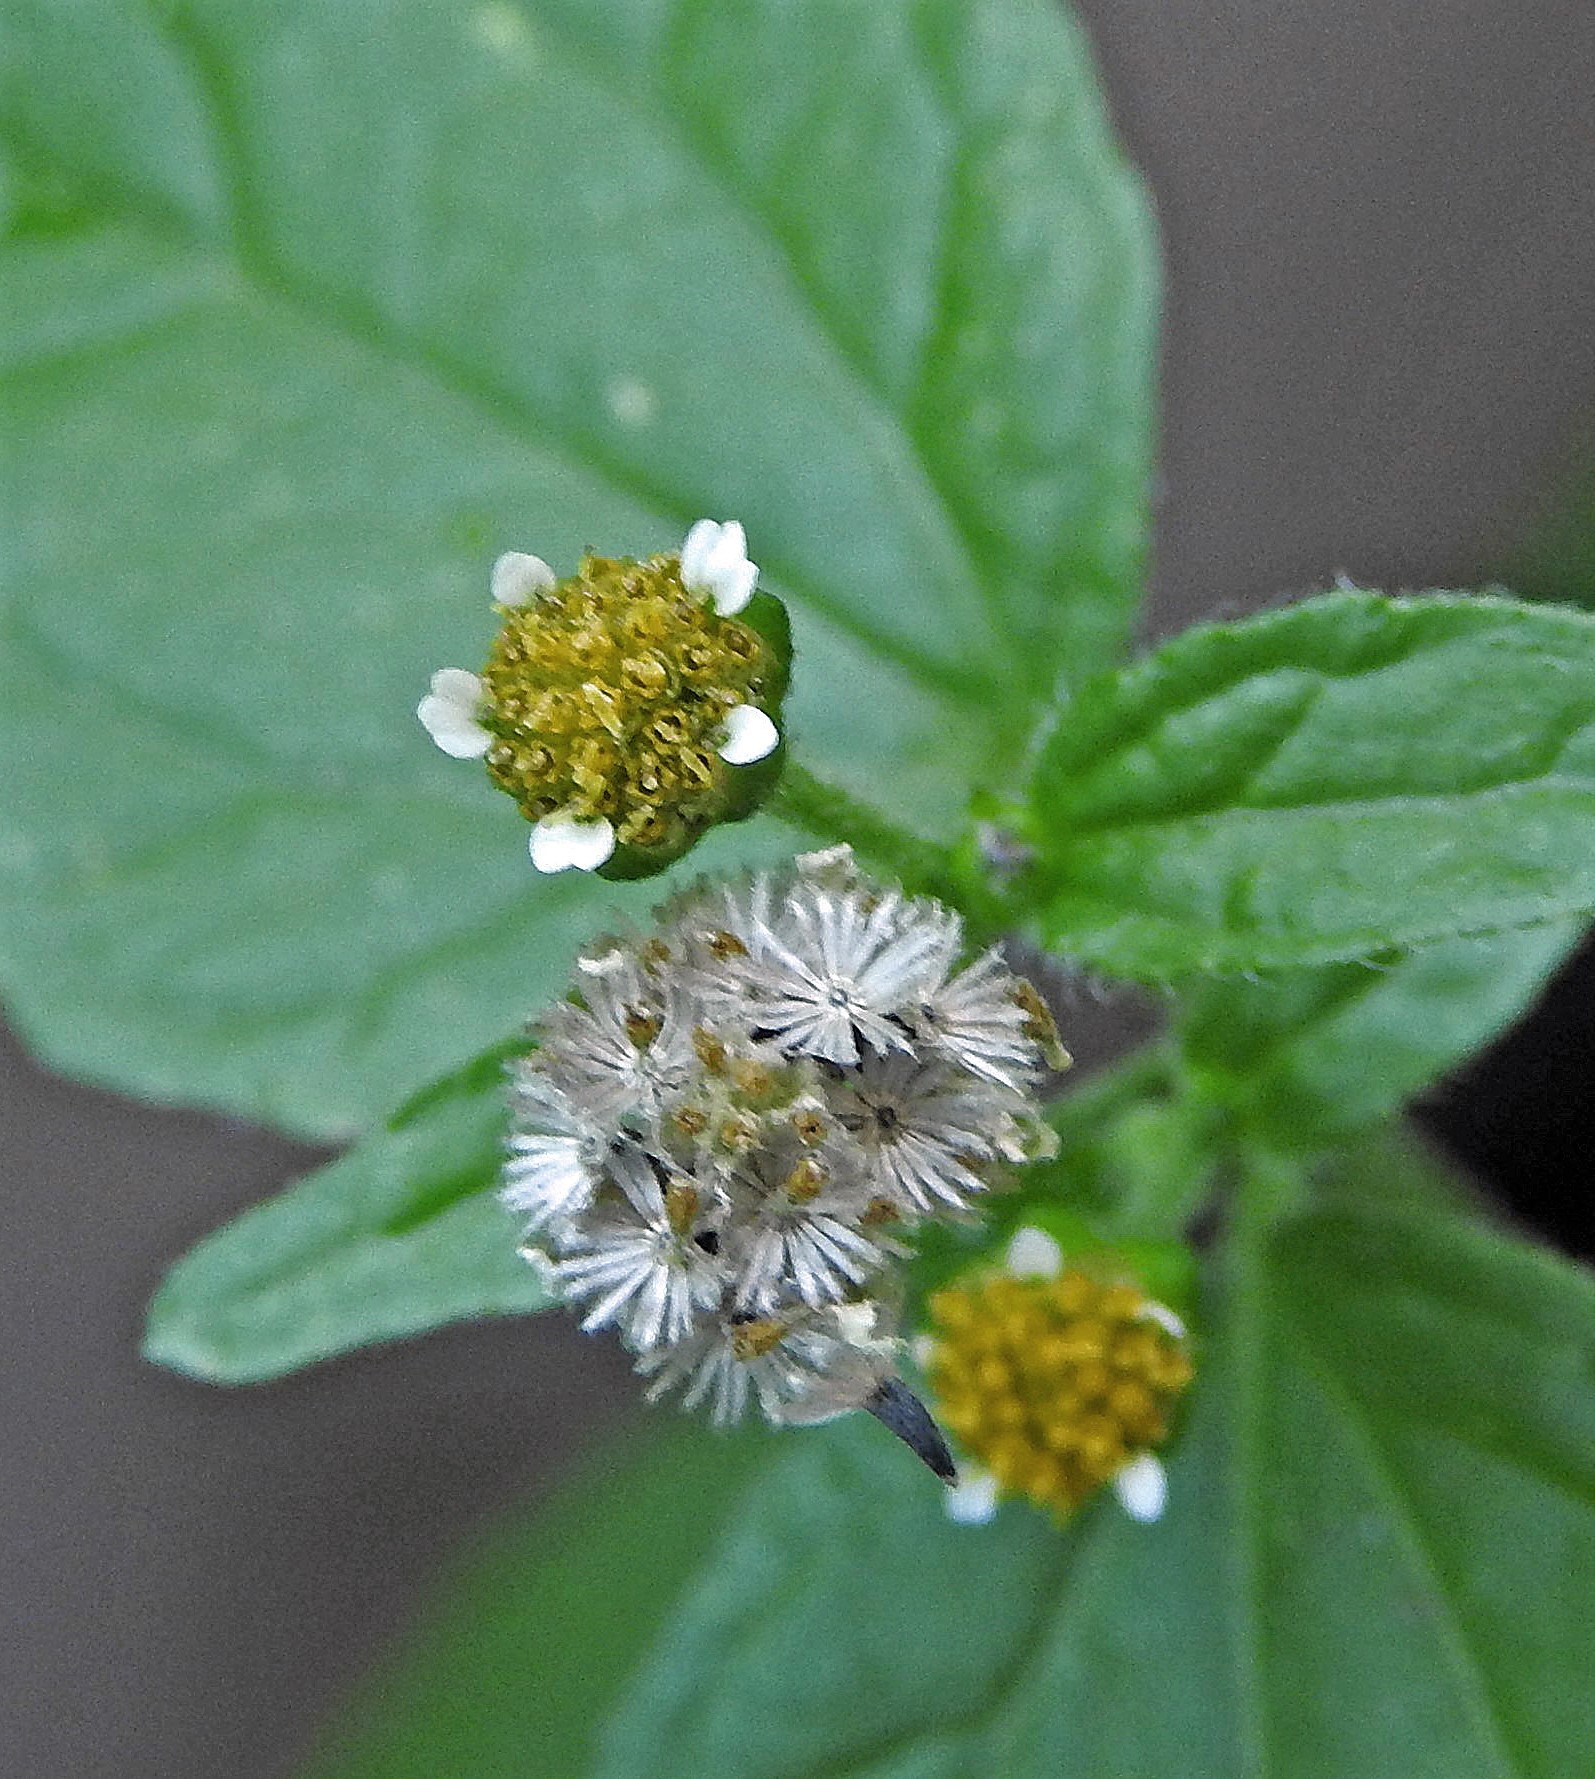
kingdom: Plantae
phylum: Tracheophyta
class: Magnoliopsida
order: Asterales
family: Asteraceae
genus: Galinsoga
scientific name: Galinsoga parviflora
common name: Gallant soldier
